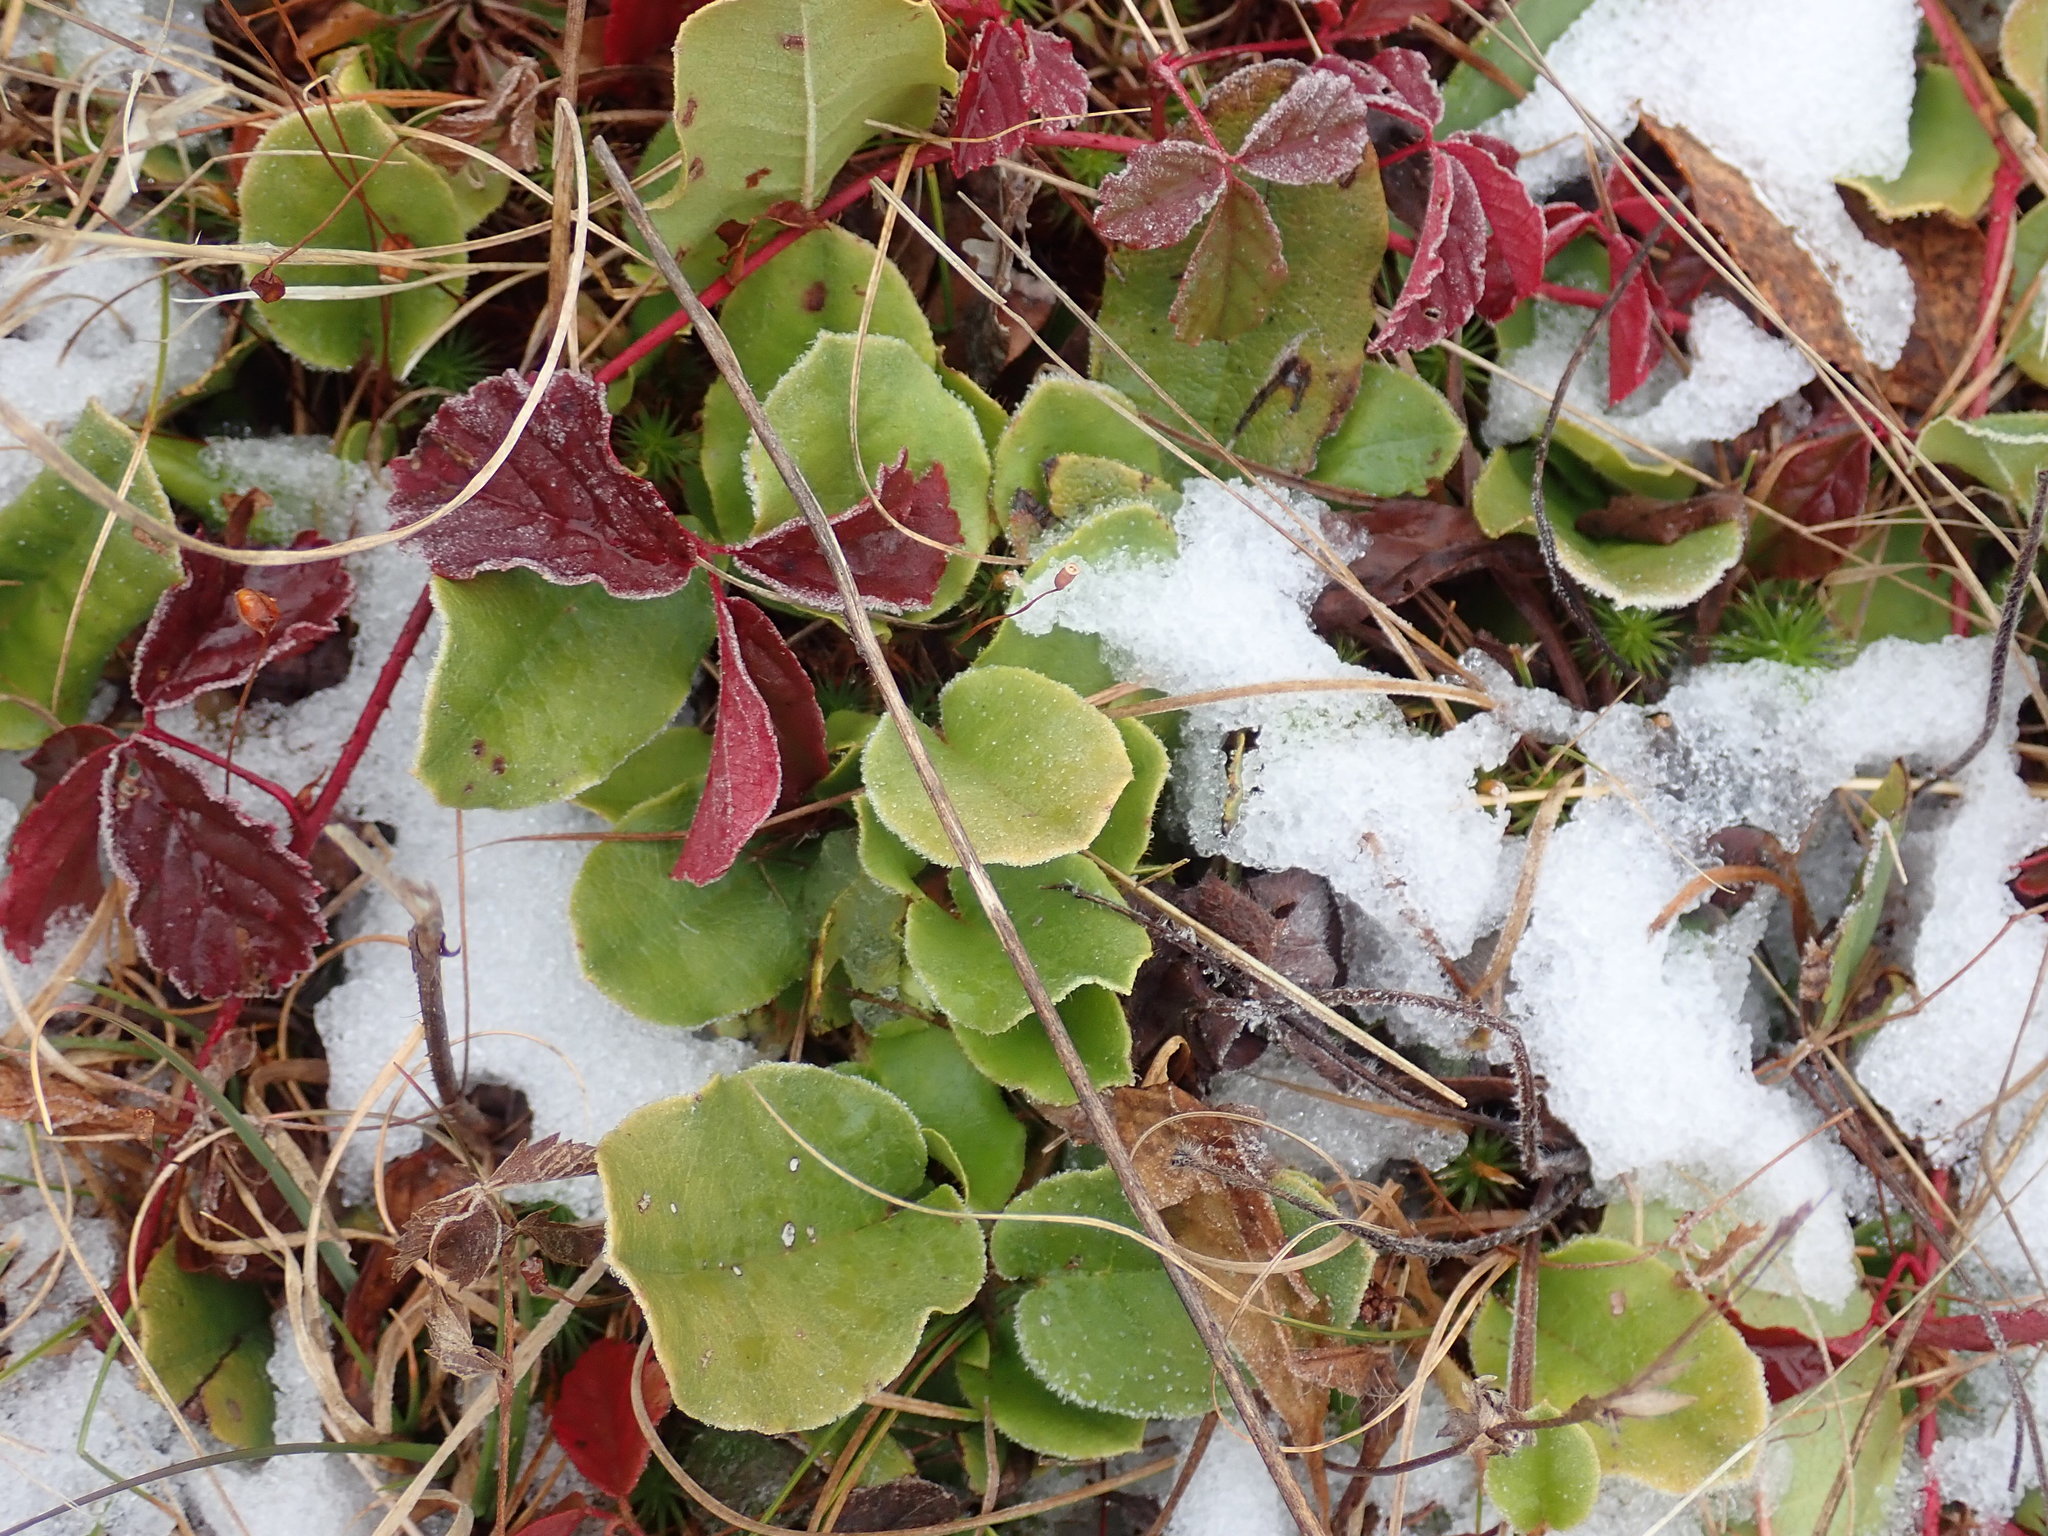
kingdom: Plantae
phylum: Tracheophyta
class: Magnoliopsida
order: Ericales
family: Ericaceae
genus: Epigaea
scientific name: Epigaea repens
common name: Gravelroot
